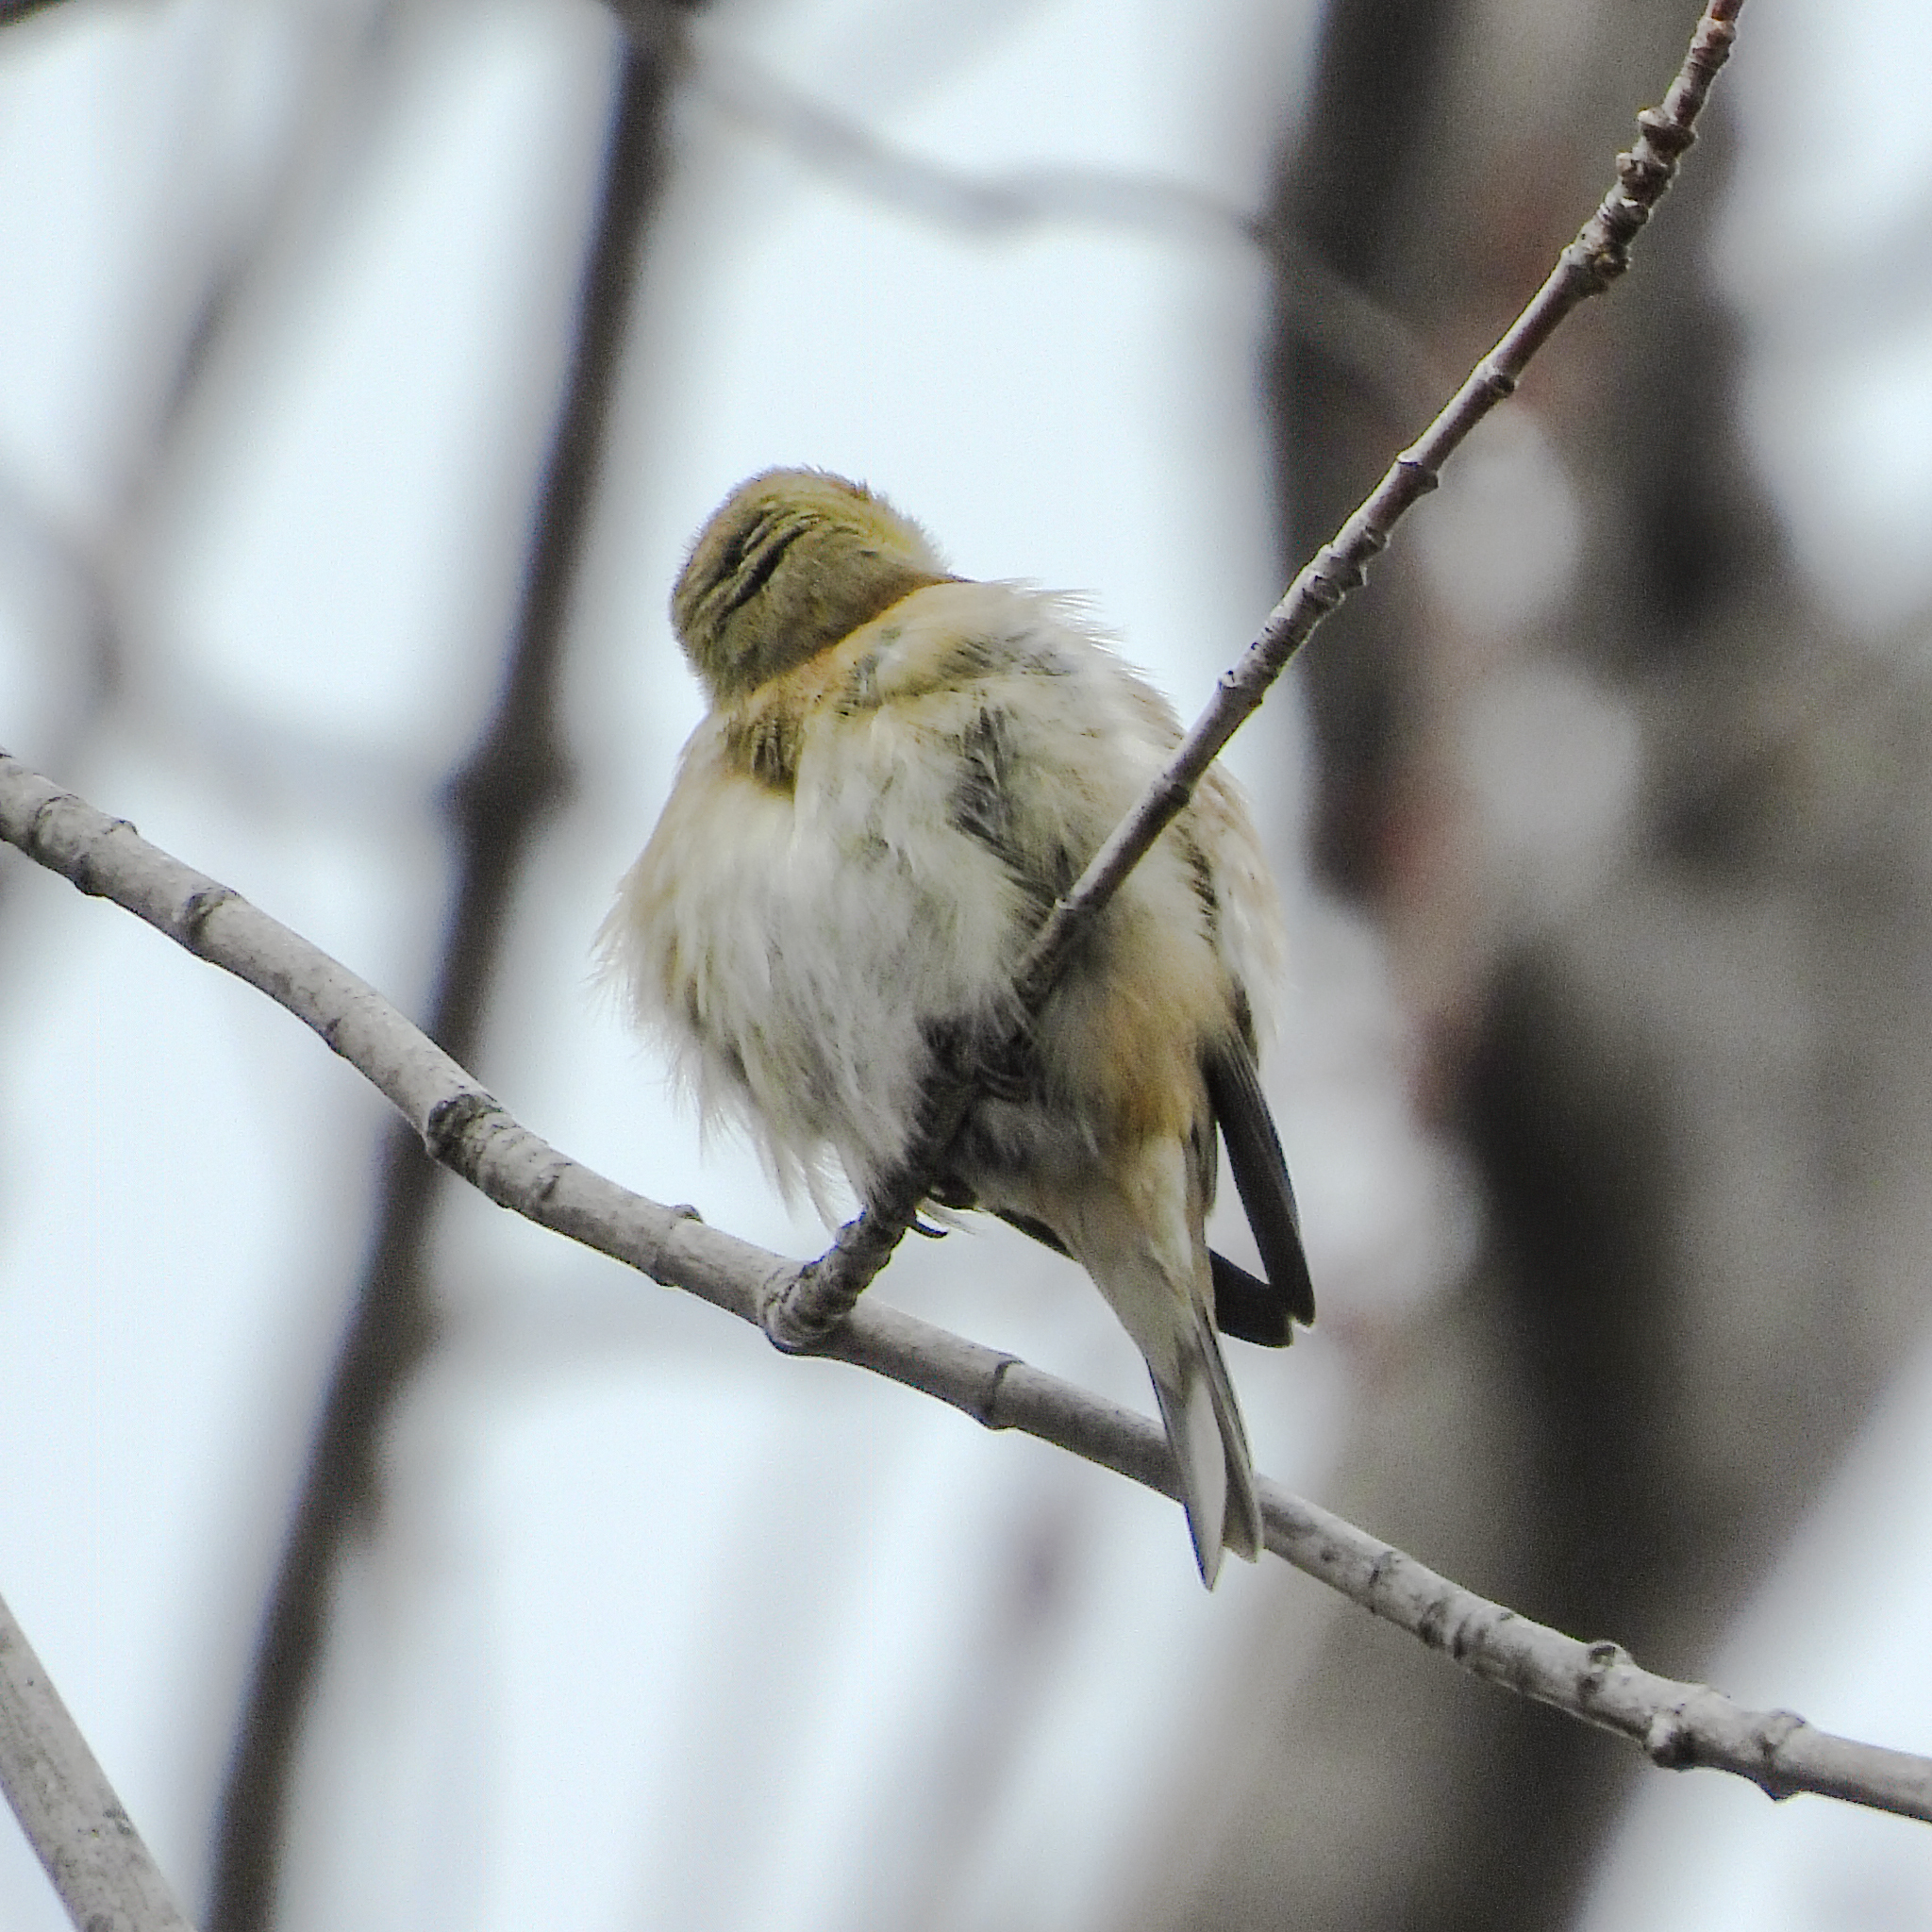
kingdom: Animalia
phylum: Chordata
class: Aves
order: Passeriformes
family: Fringillidae
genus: Spinus
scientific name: Spinus tristis
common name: American goldfinch
